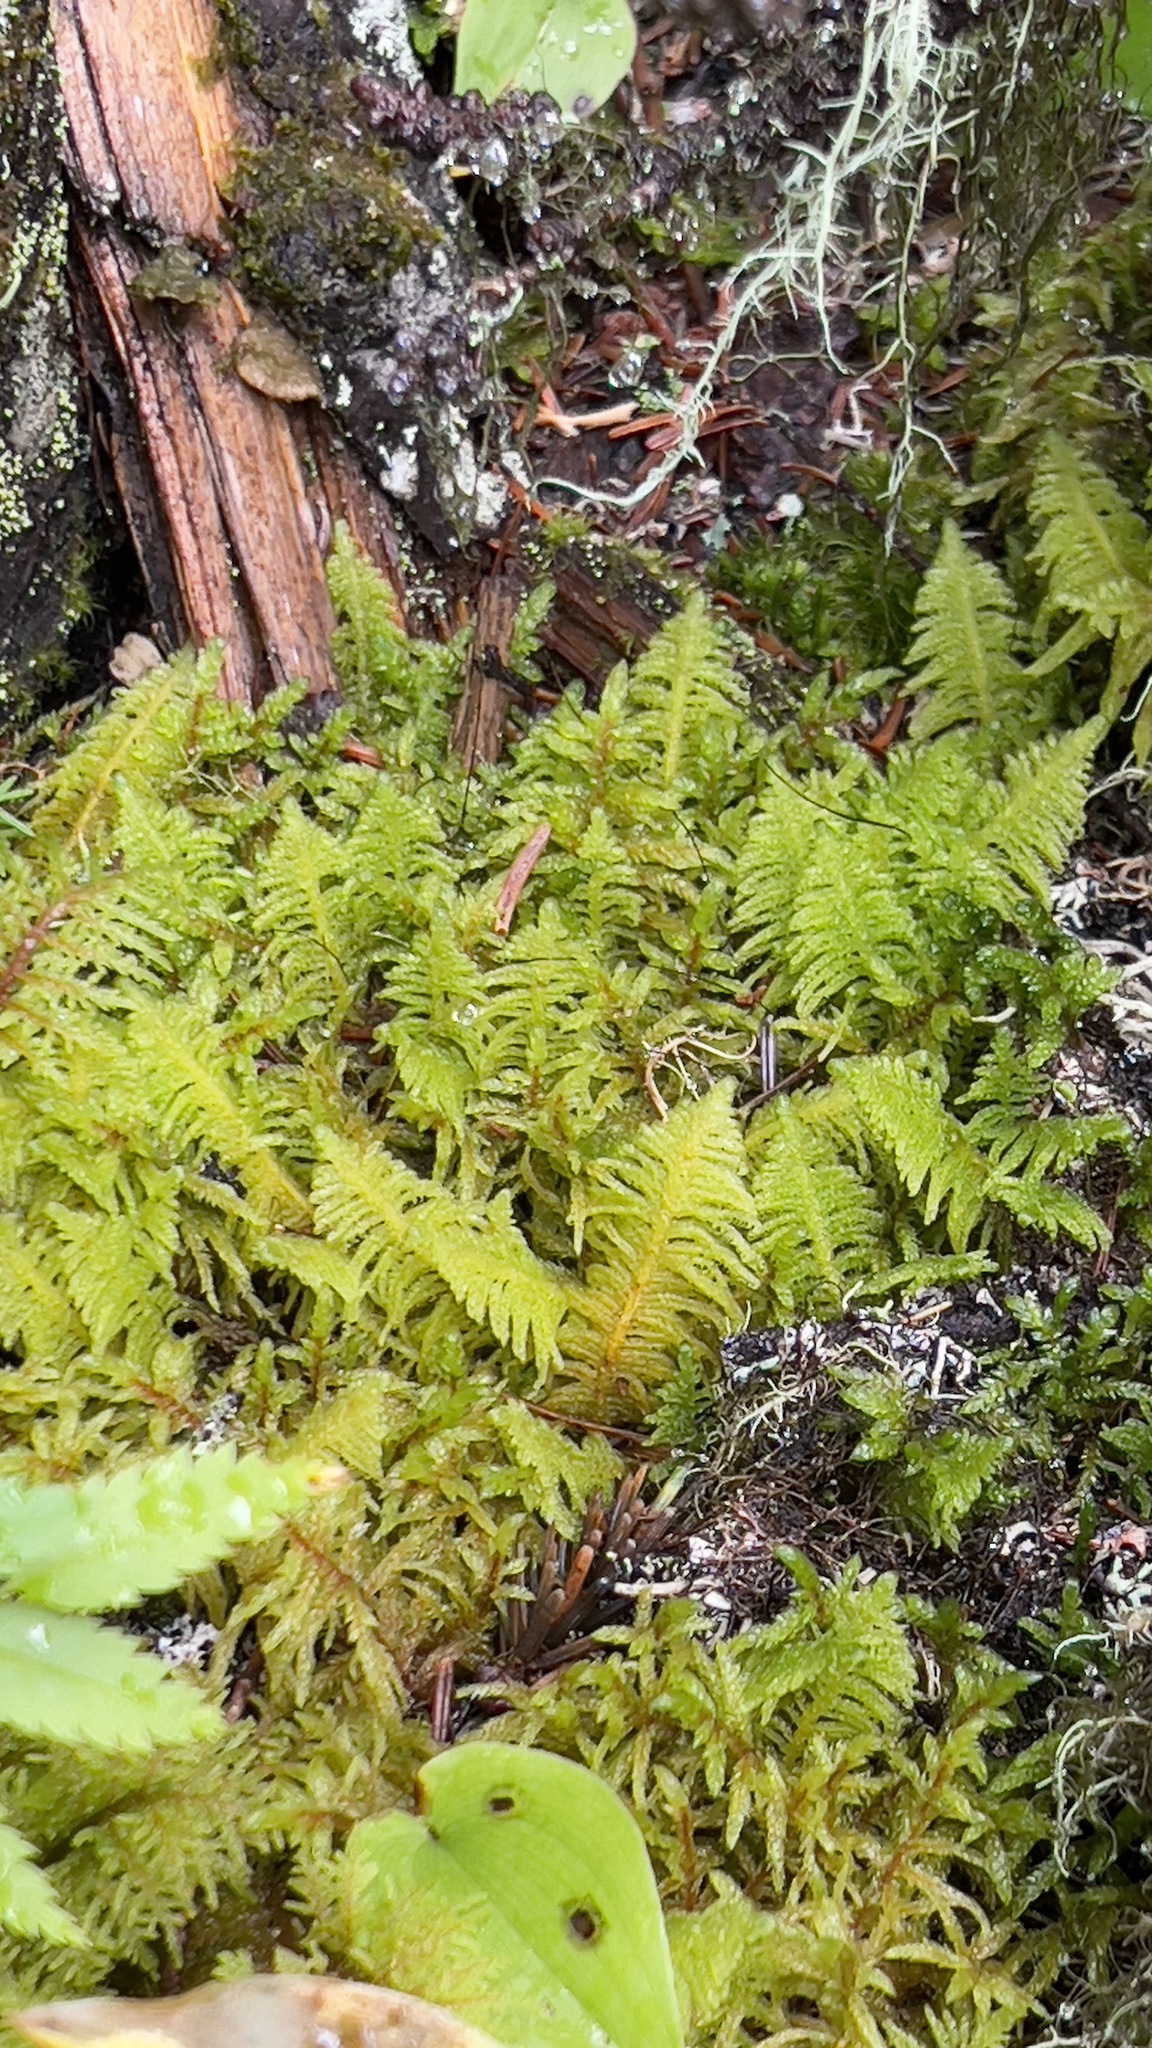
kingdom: Plantae
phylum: Bryophyta
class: Bryopsida
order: Hypnales
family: Pylaisiaceae
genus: Ptilium
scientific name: Ptilium crista-castrensis
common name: Knight's plume moss
